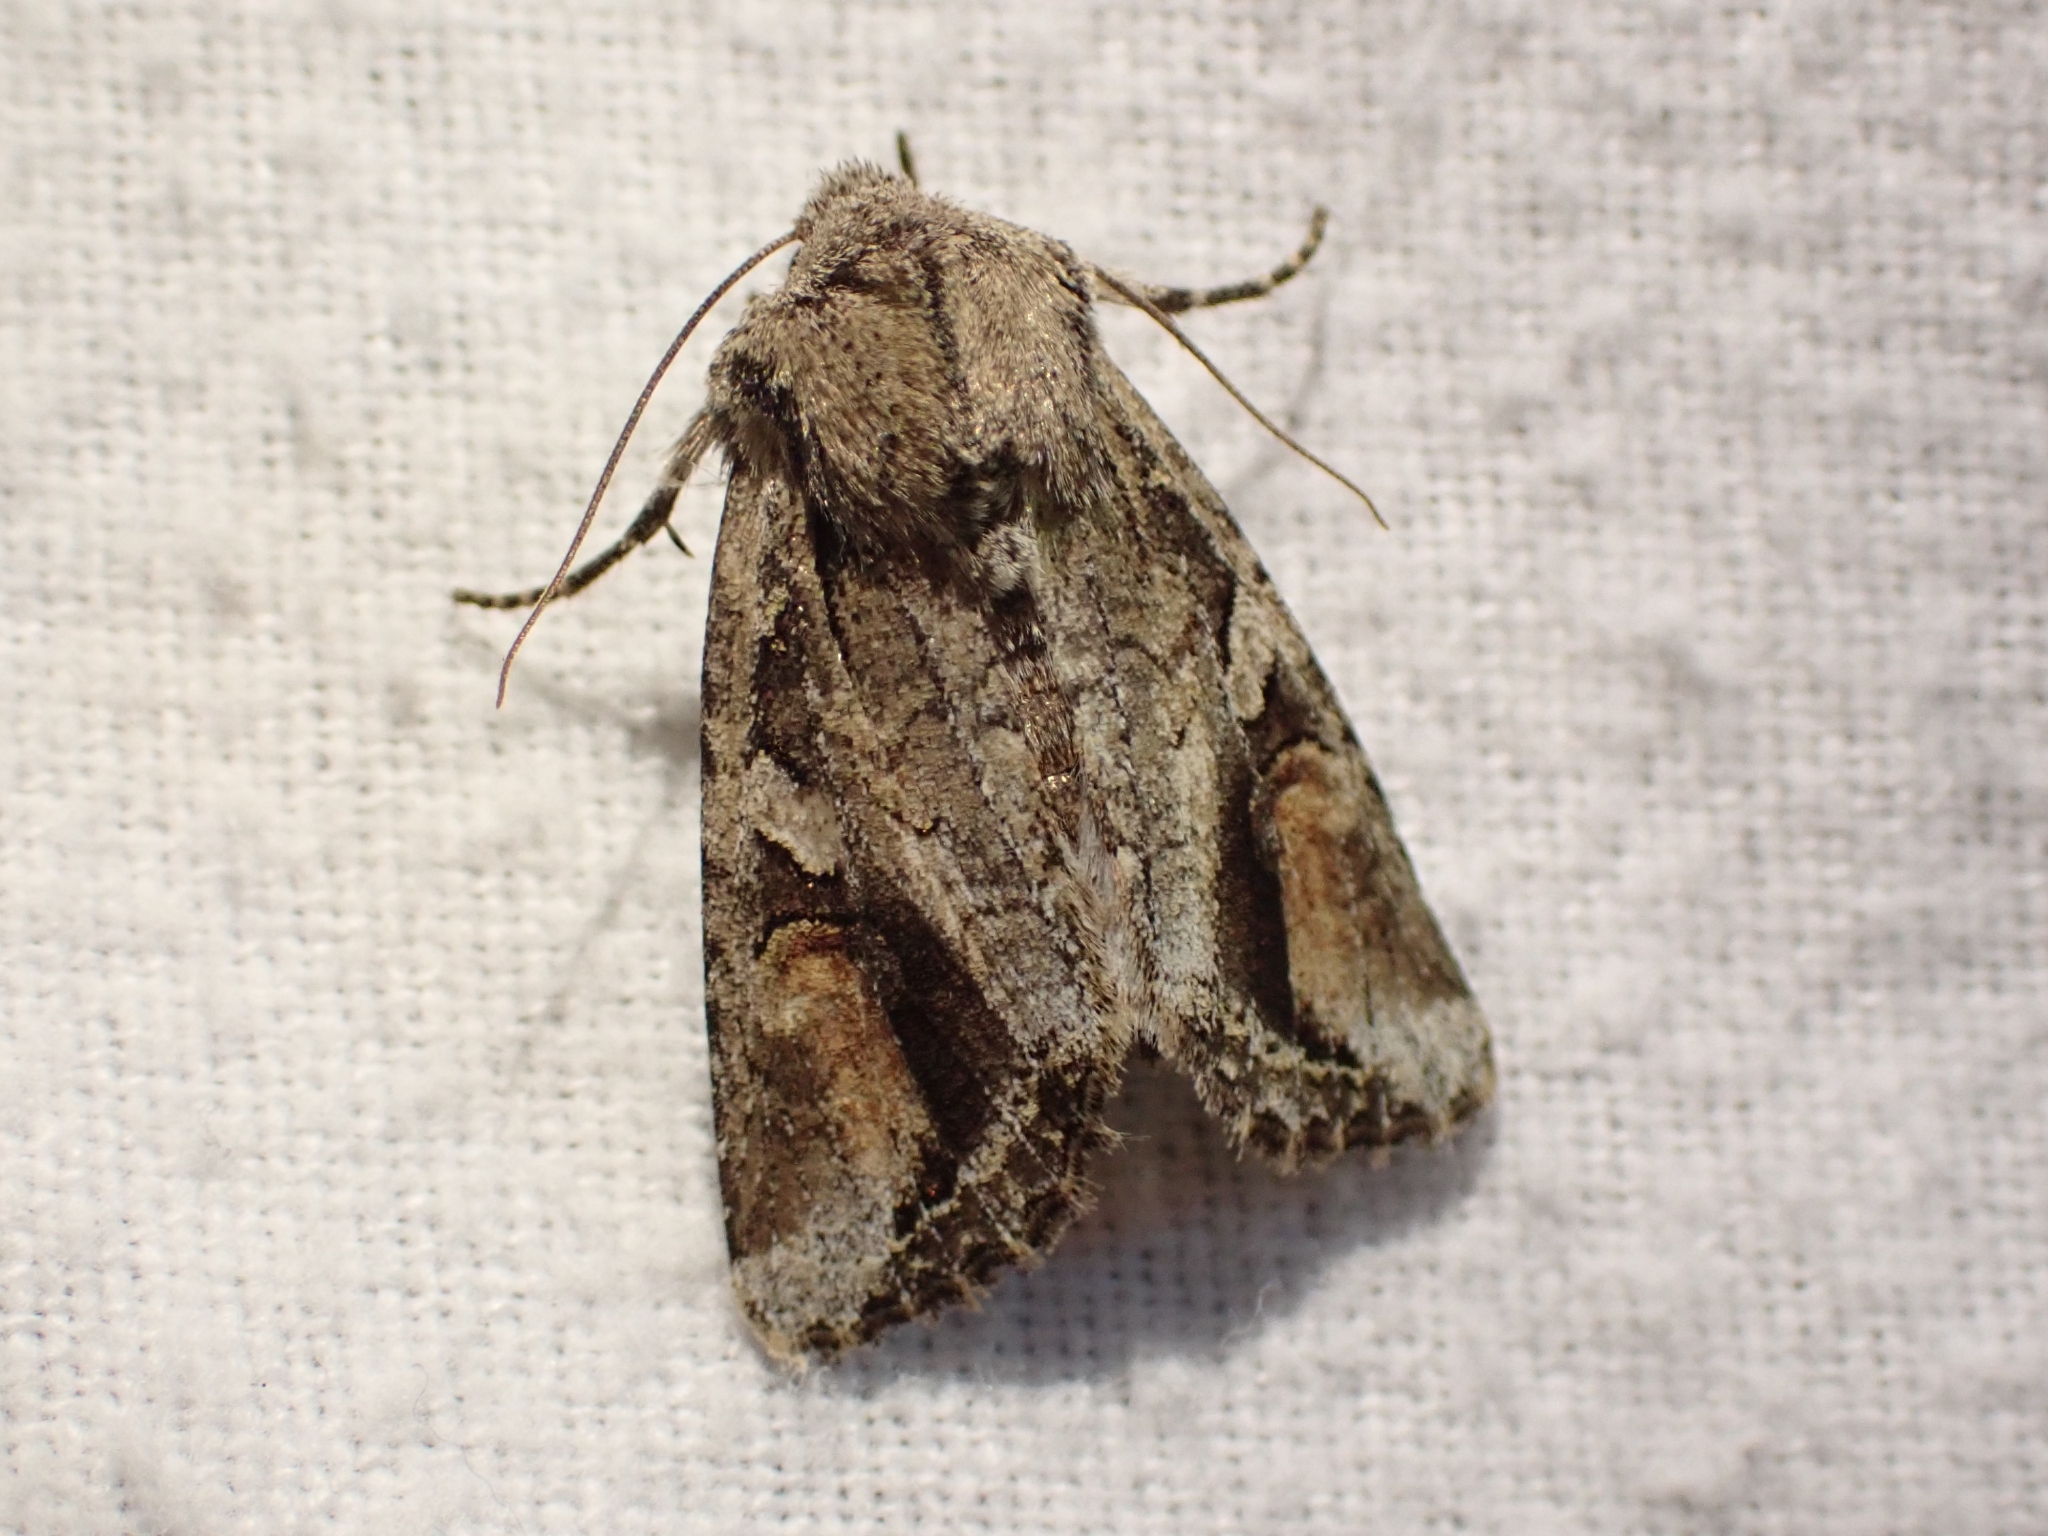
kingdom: Animalia
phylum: Arthropoda
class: Insecta
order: Lepidoptera
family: Noctuidae
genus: Egira
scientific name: Egira perlubens
